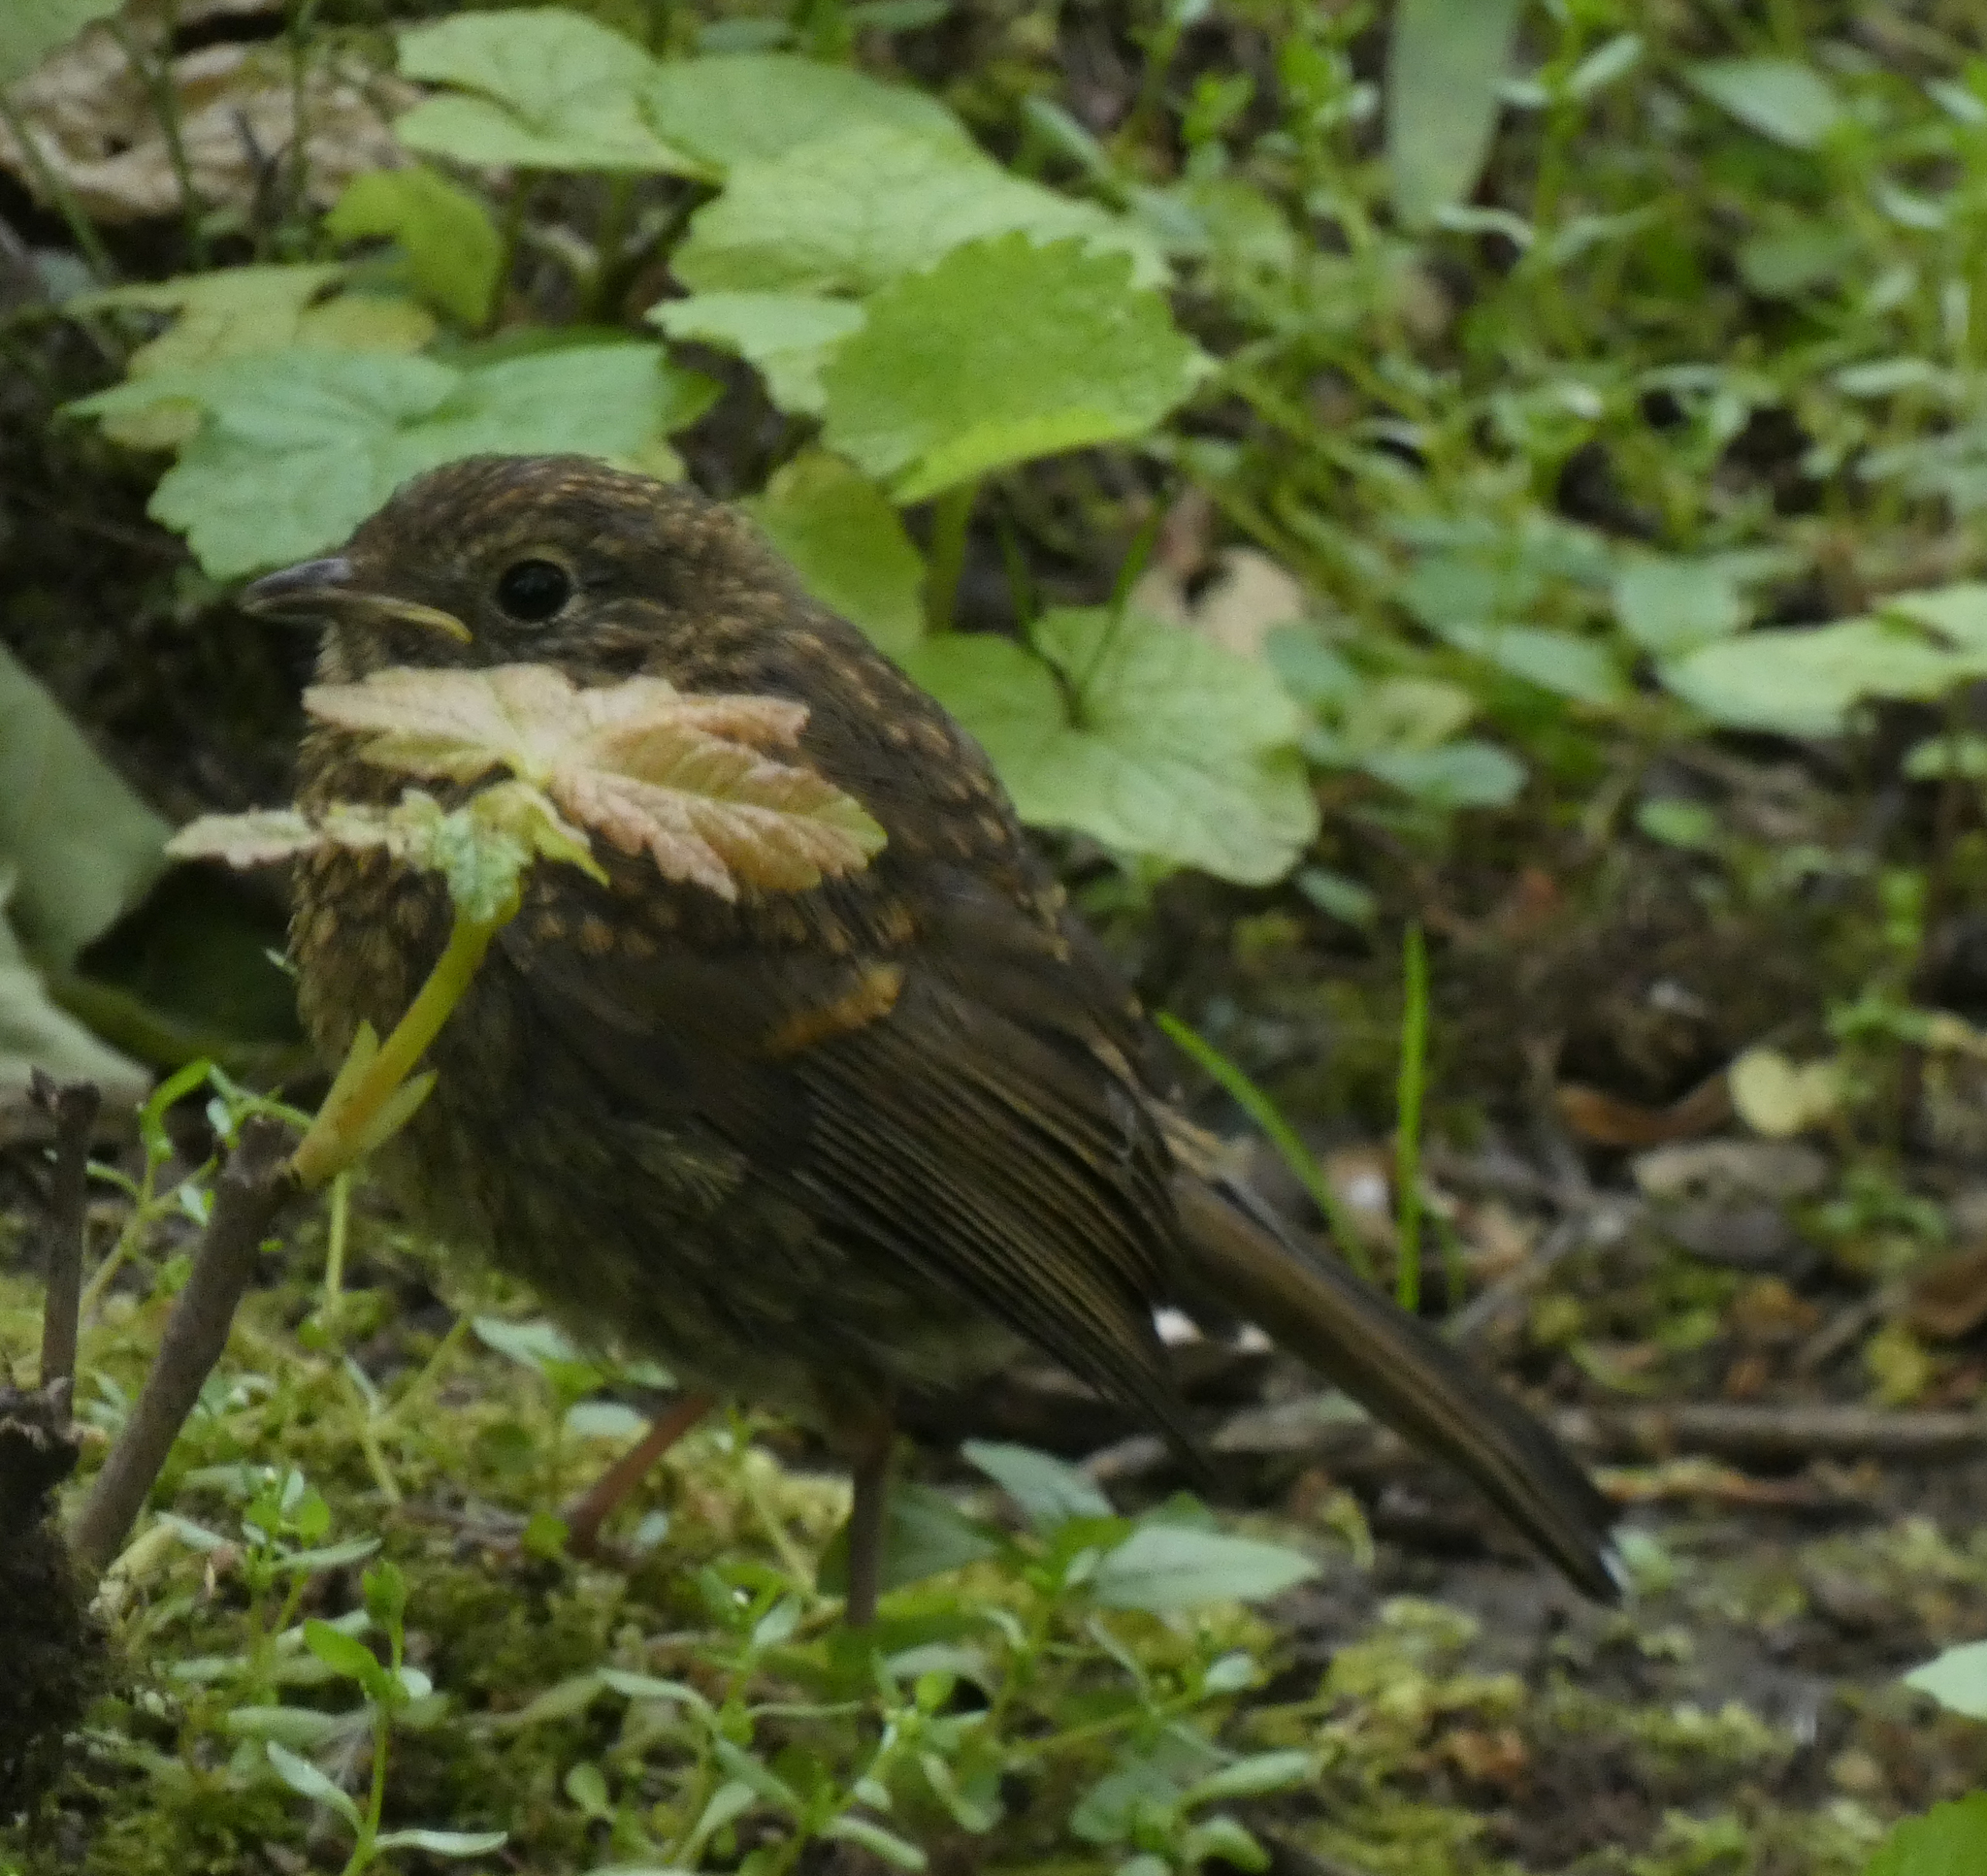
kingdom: Animalia
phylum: Chordata
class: Aves
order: Passeriformes
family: Muscicapidae
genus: Erithacus
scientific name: Erithacus rubecula
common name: European robin
